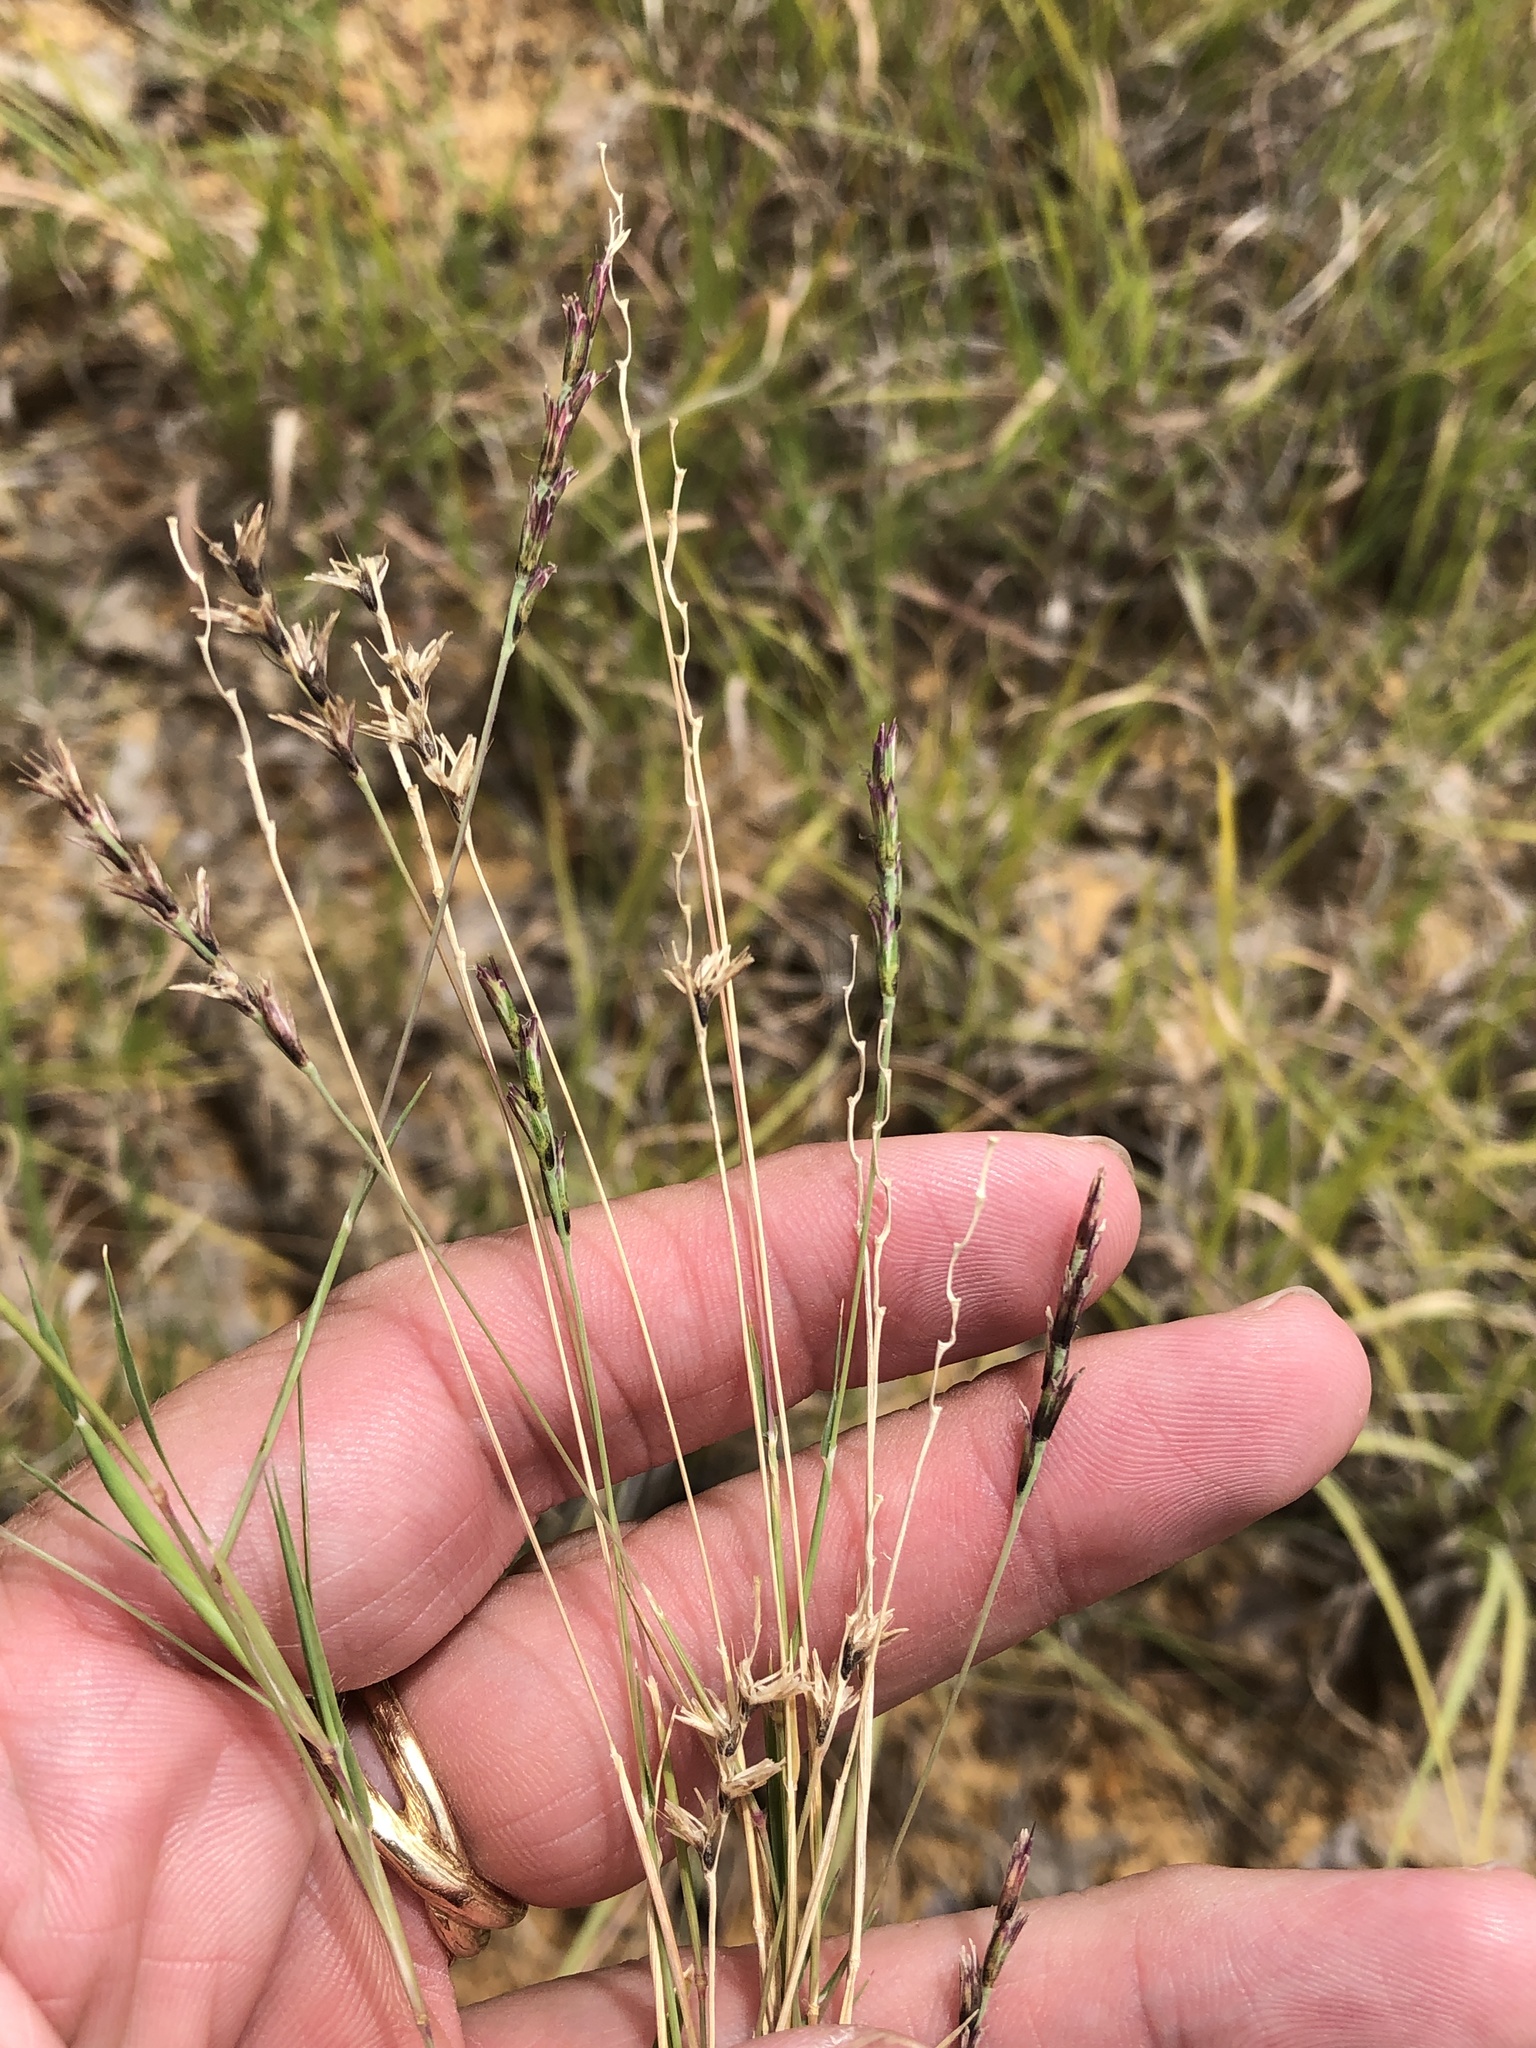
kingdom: Plantae
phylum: Tracheophyta
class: Liliopsida
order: Poales
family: Poaceae
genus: Hilaria
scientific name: Hilaria belangeri
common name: Curly-mesquite
